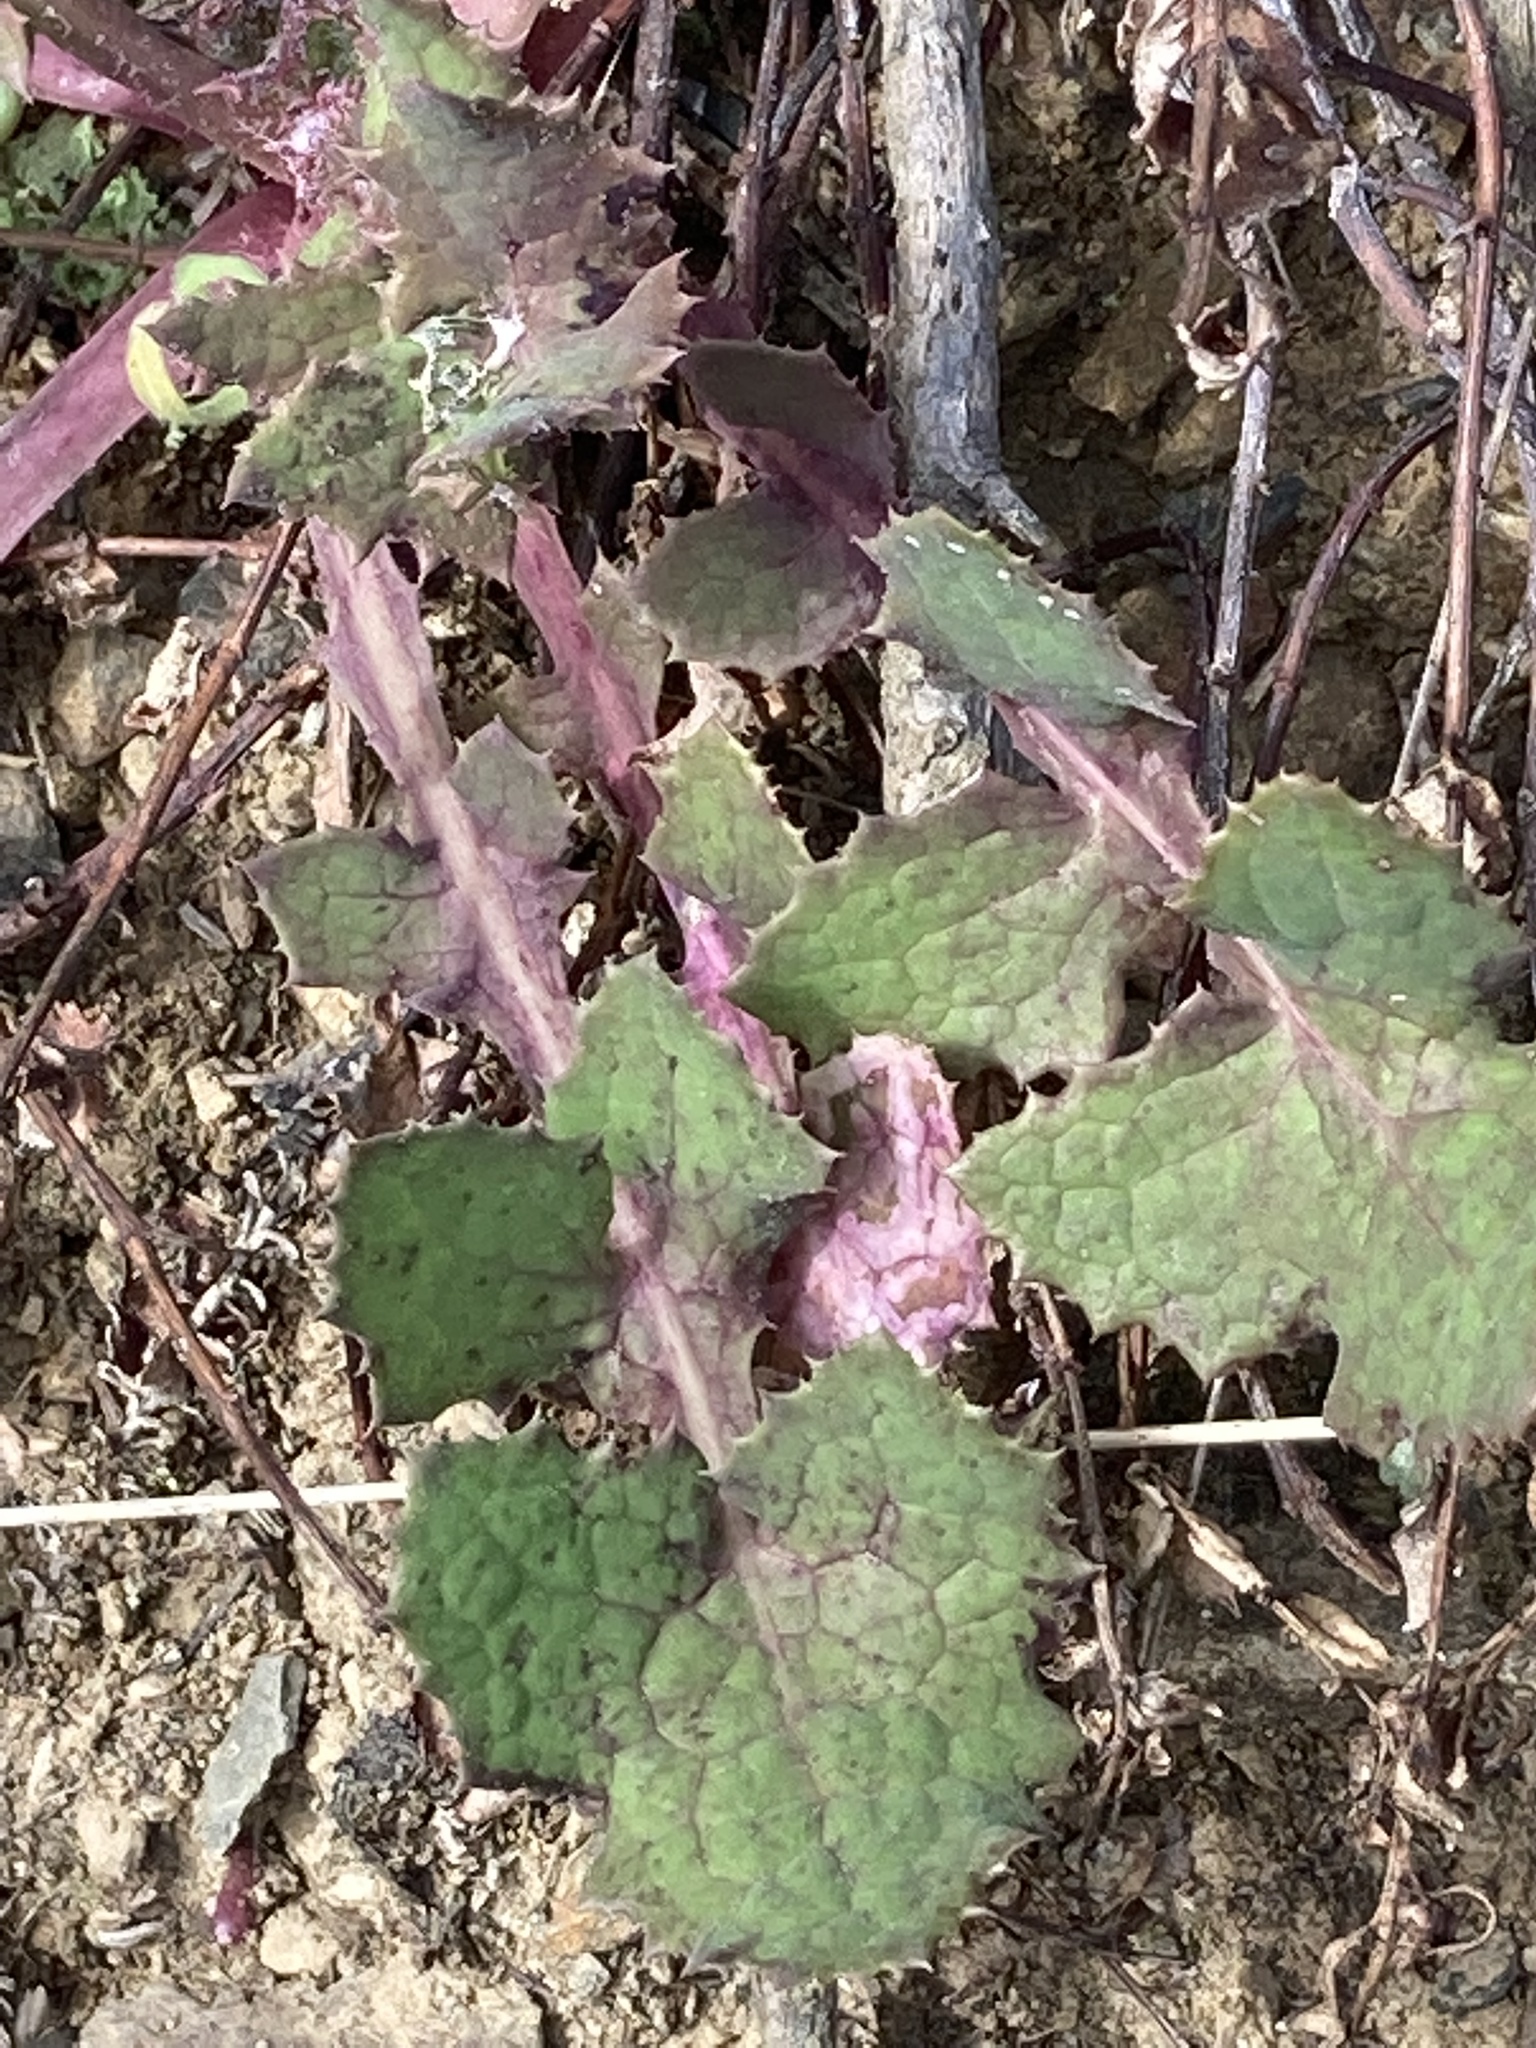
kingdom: Plantae
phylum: Tracheophyta
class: Magnoliopsida
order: Asterales
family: Asteraceae
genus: Sonchus
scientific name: Sonchus oleraceus
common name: Common sowthistle
